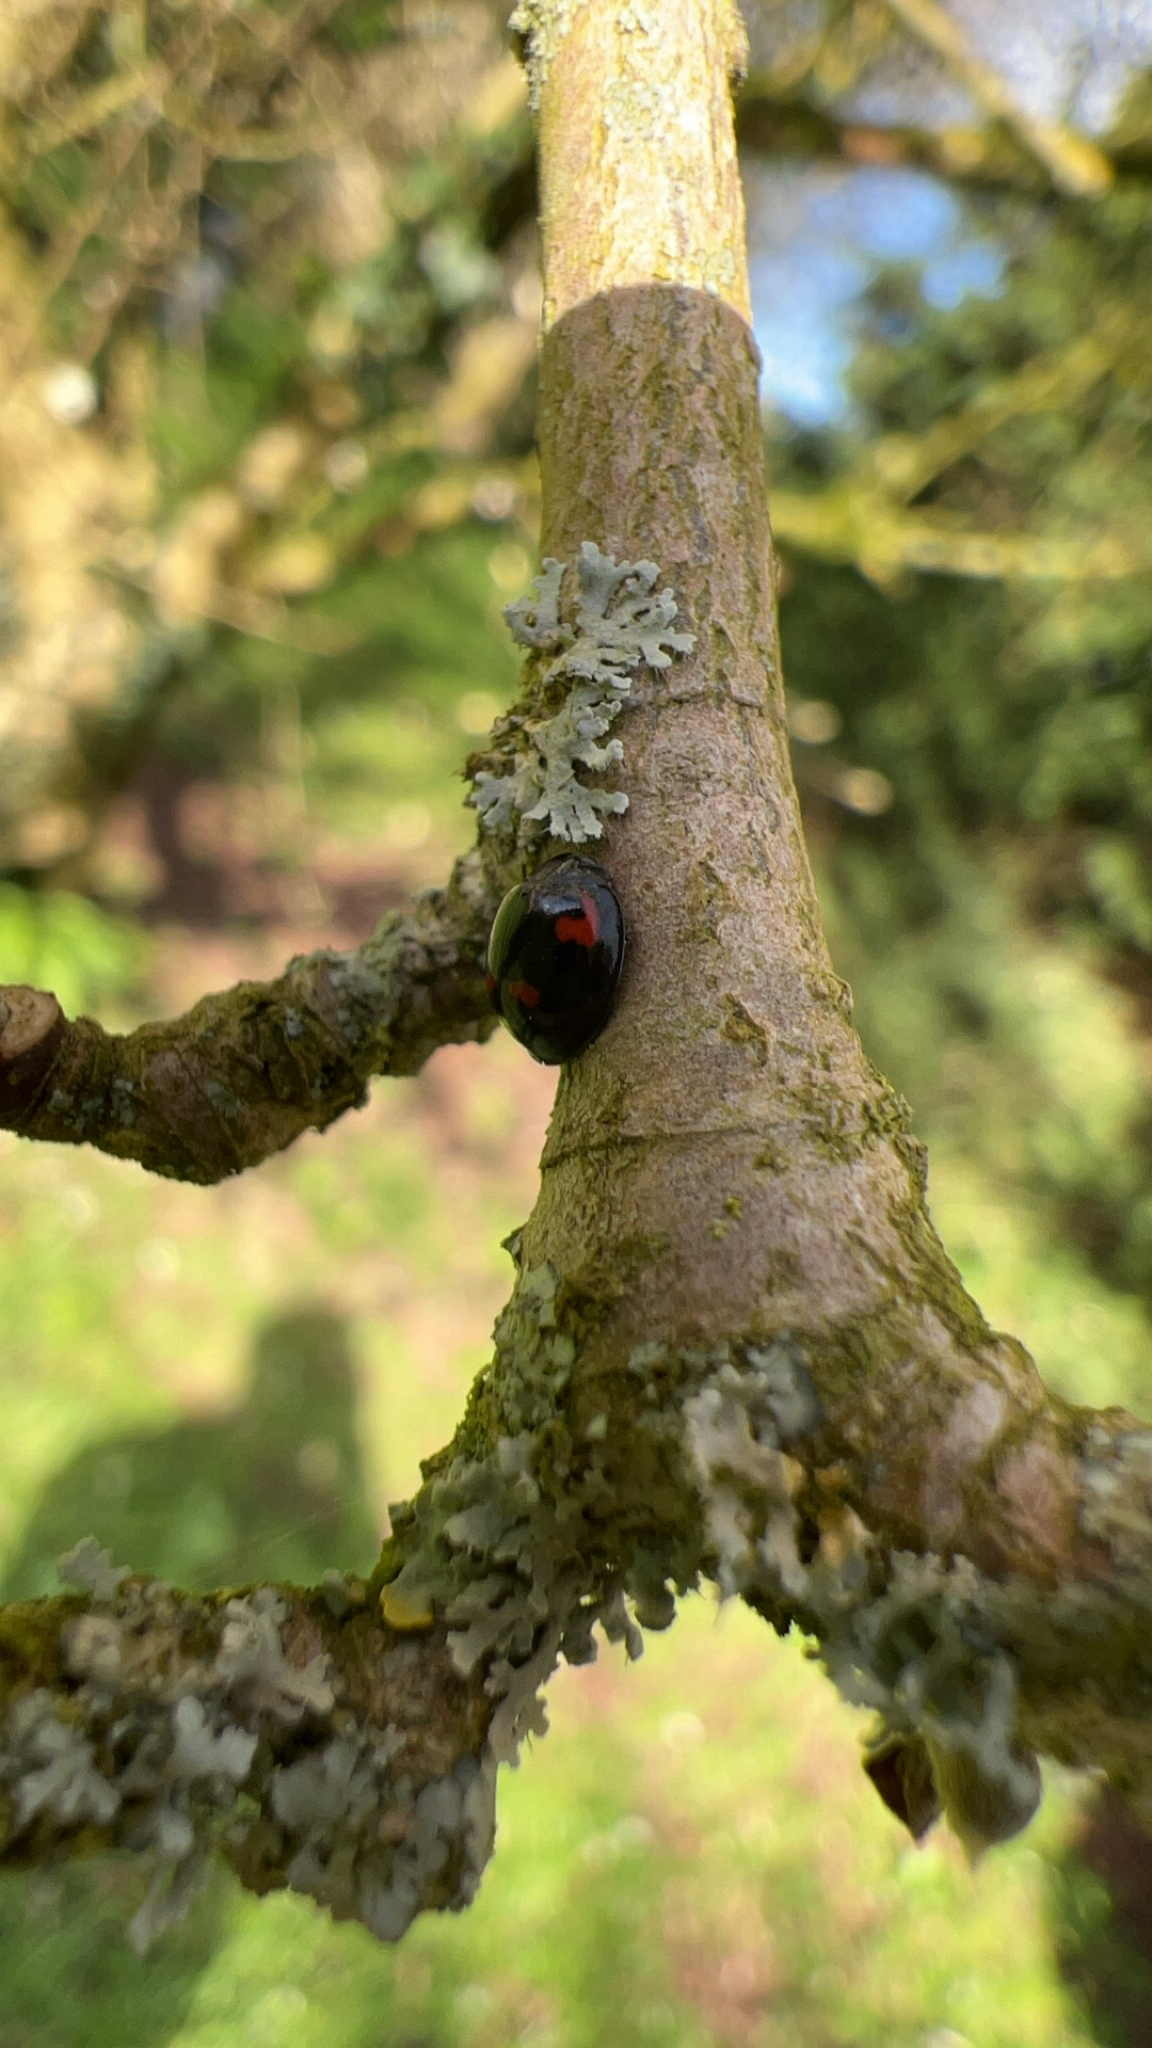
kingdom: Animalia
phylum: Arthropoda
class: Insecta
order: Coleoptera
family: Coccinellidae
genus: Brumus
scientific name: Brumus quadripustulatus
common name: Ladybird beetle
